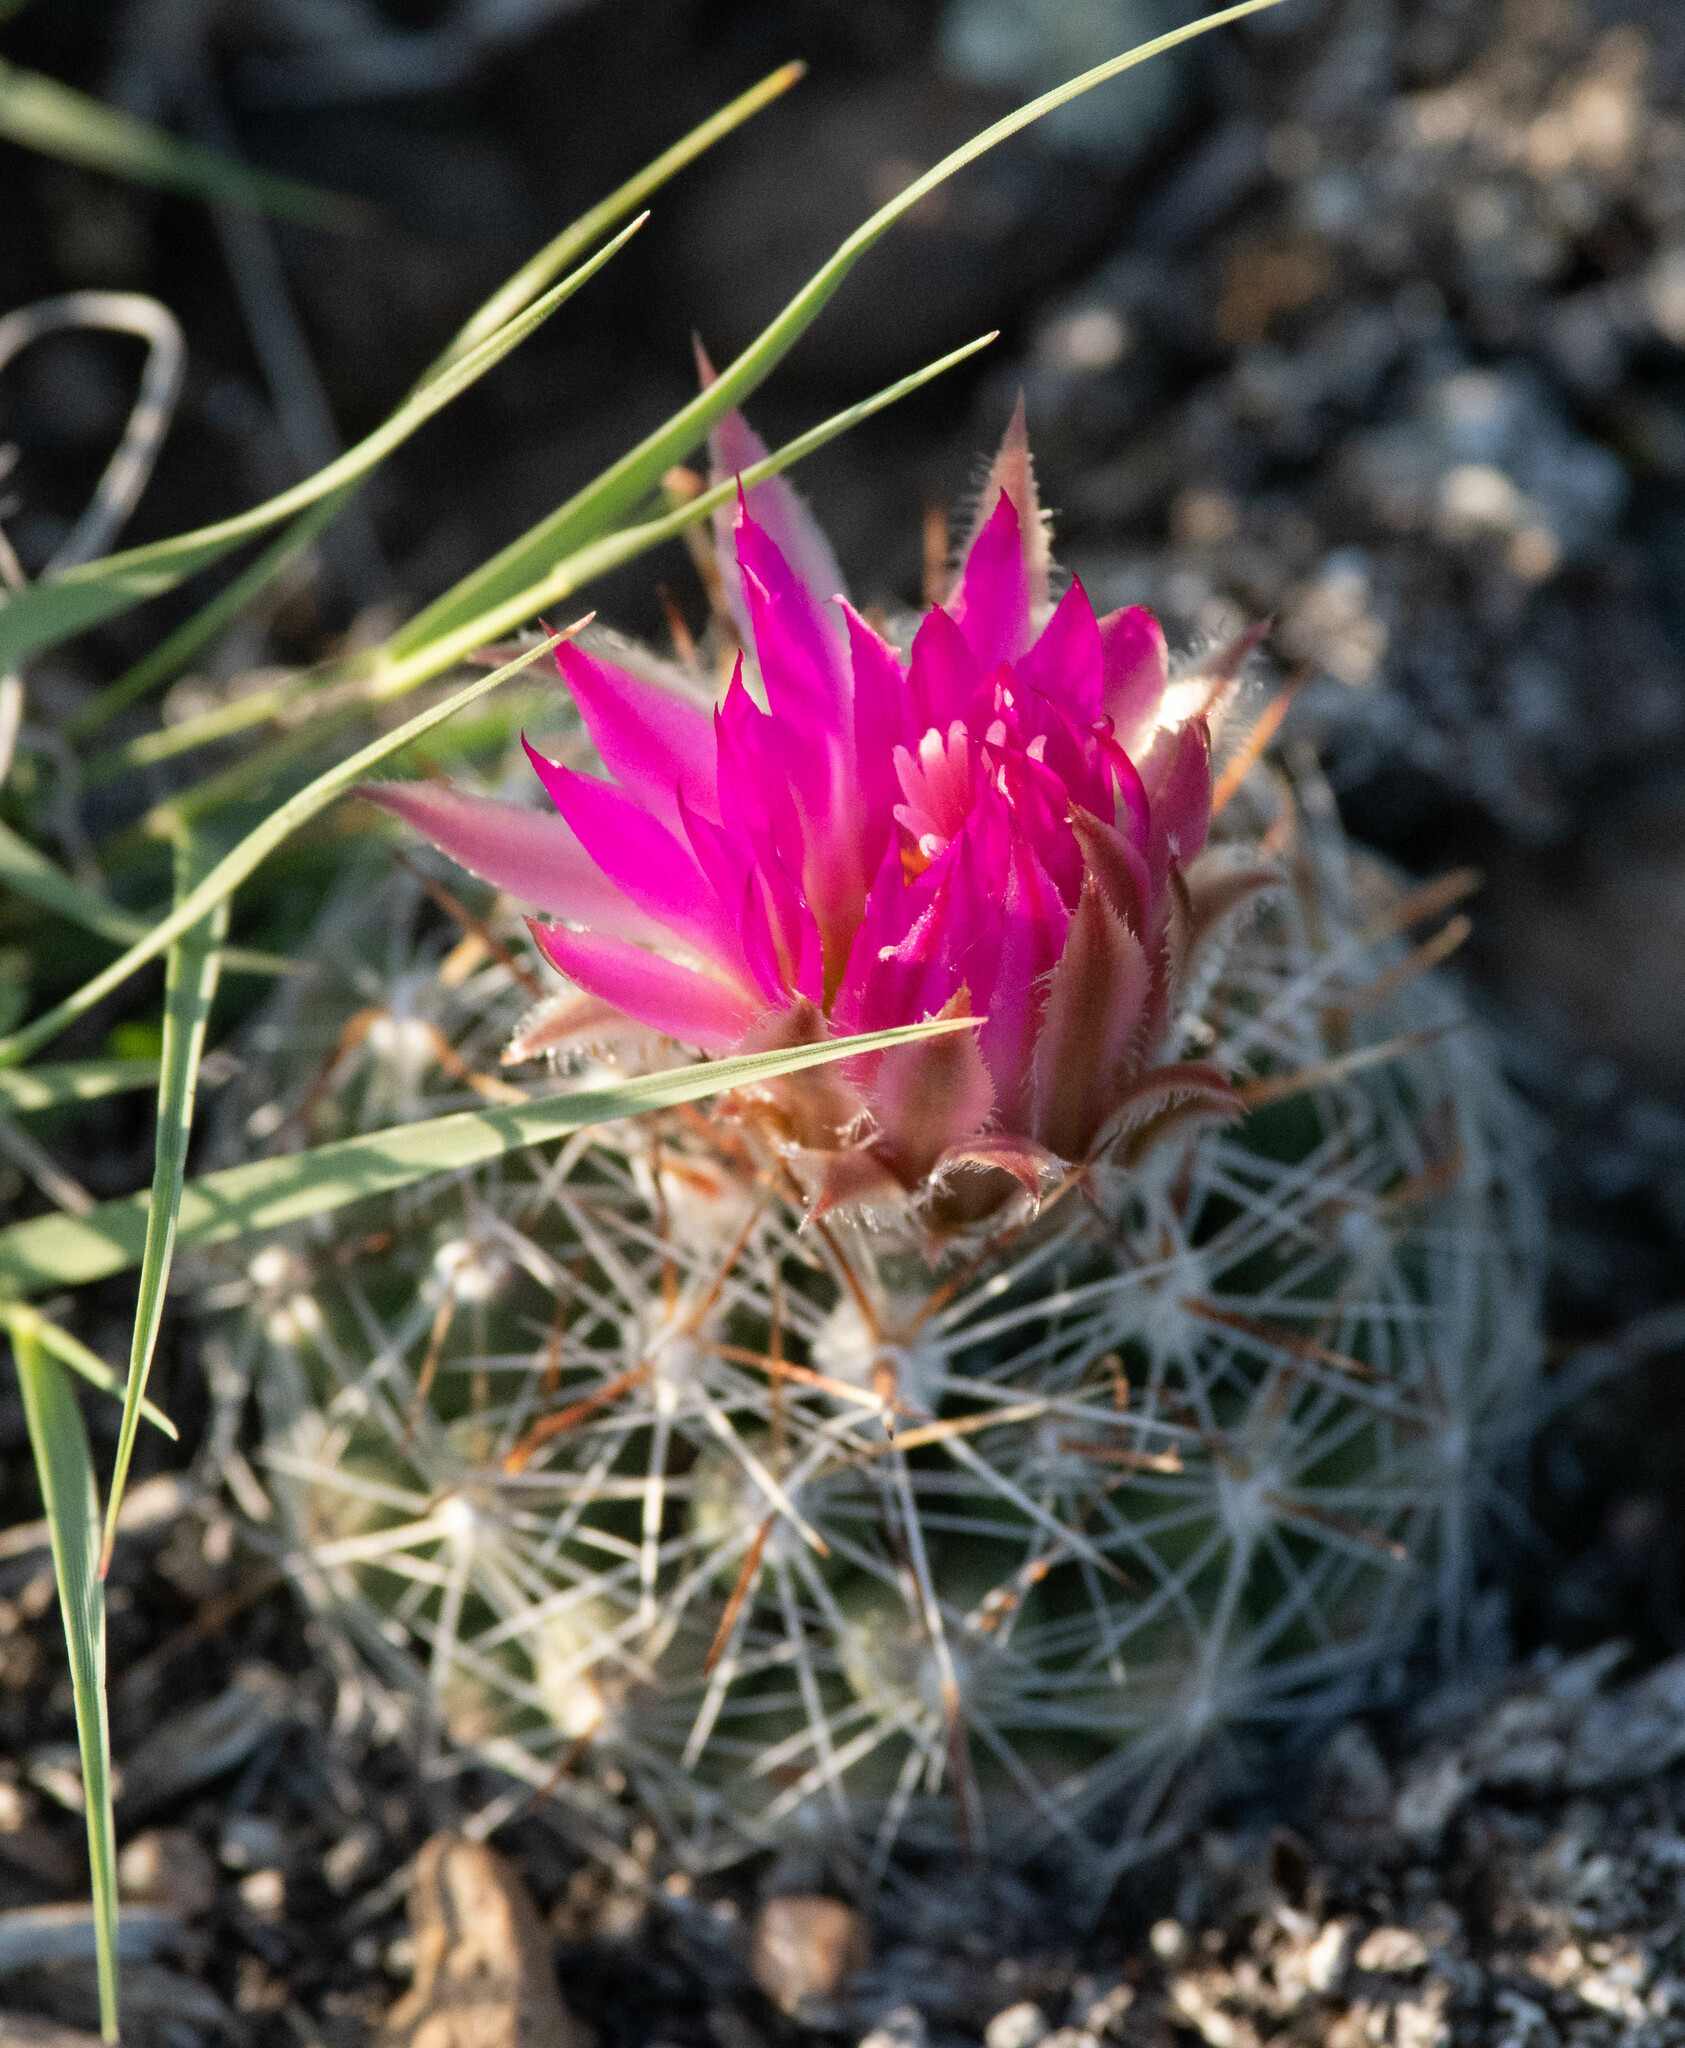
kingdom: Plantae
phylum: Tracheophyta
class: Magnoliopsida
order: Caryophyllales
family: Cactaceae
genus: Pelecyphora
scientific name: Pelecyphora vivipara
